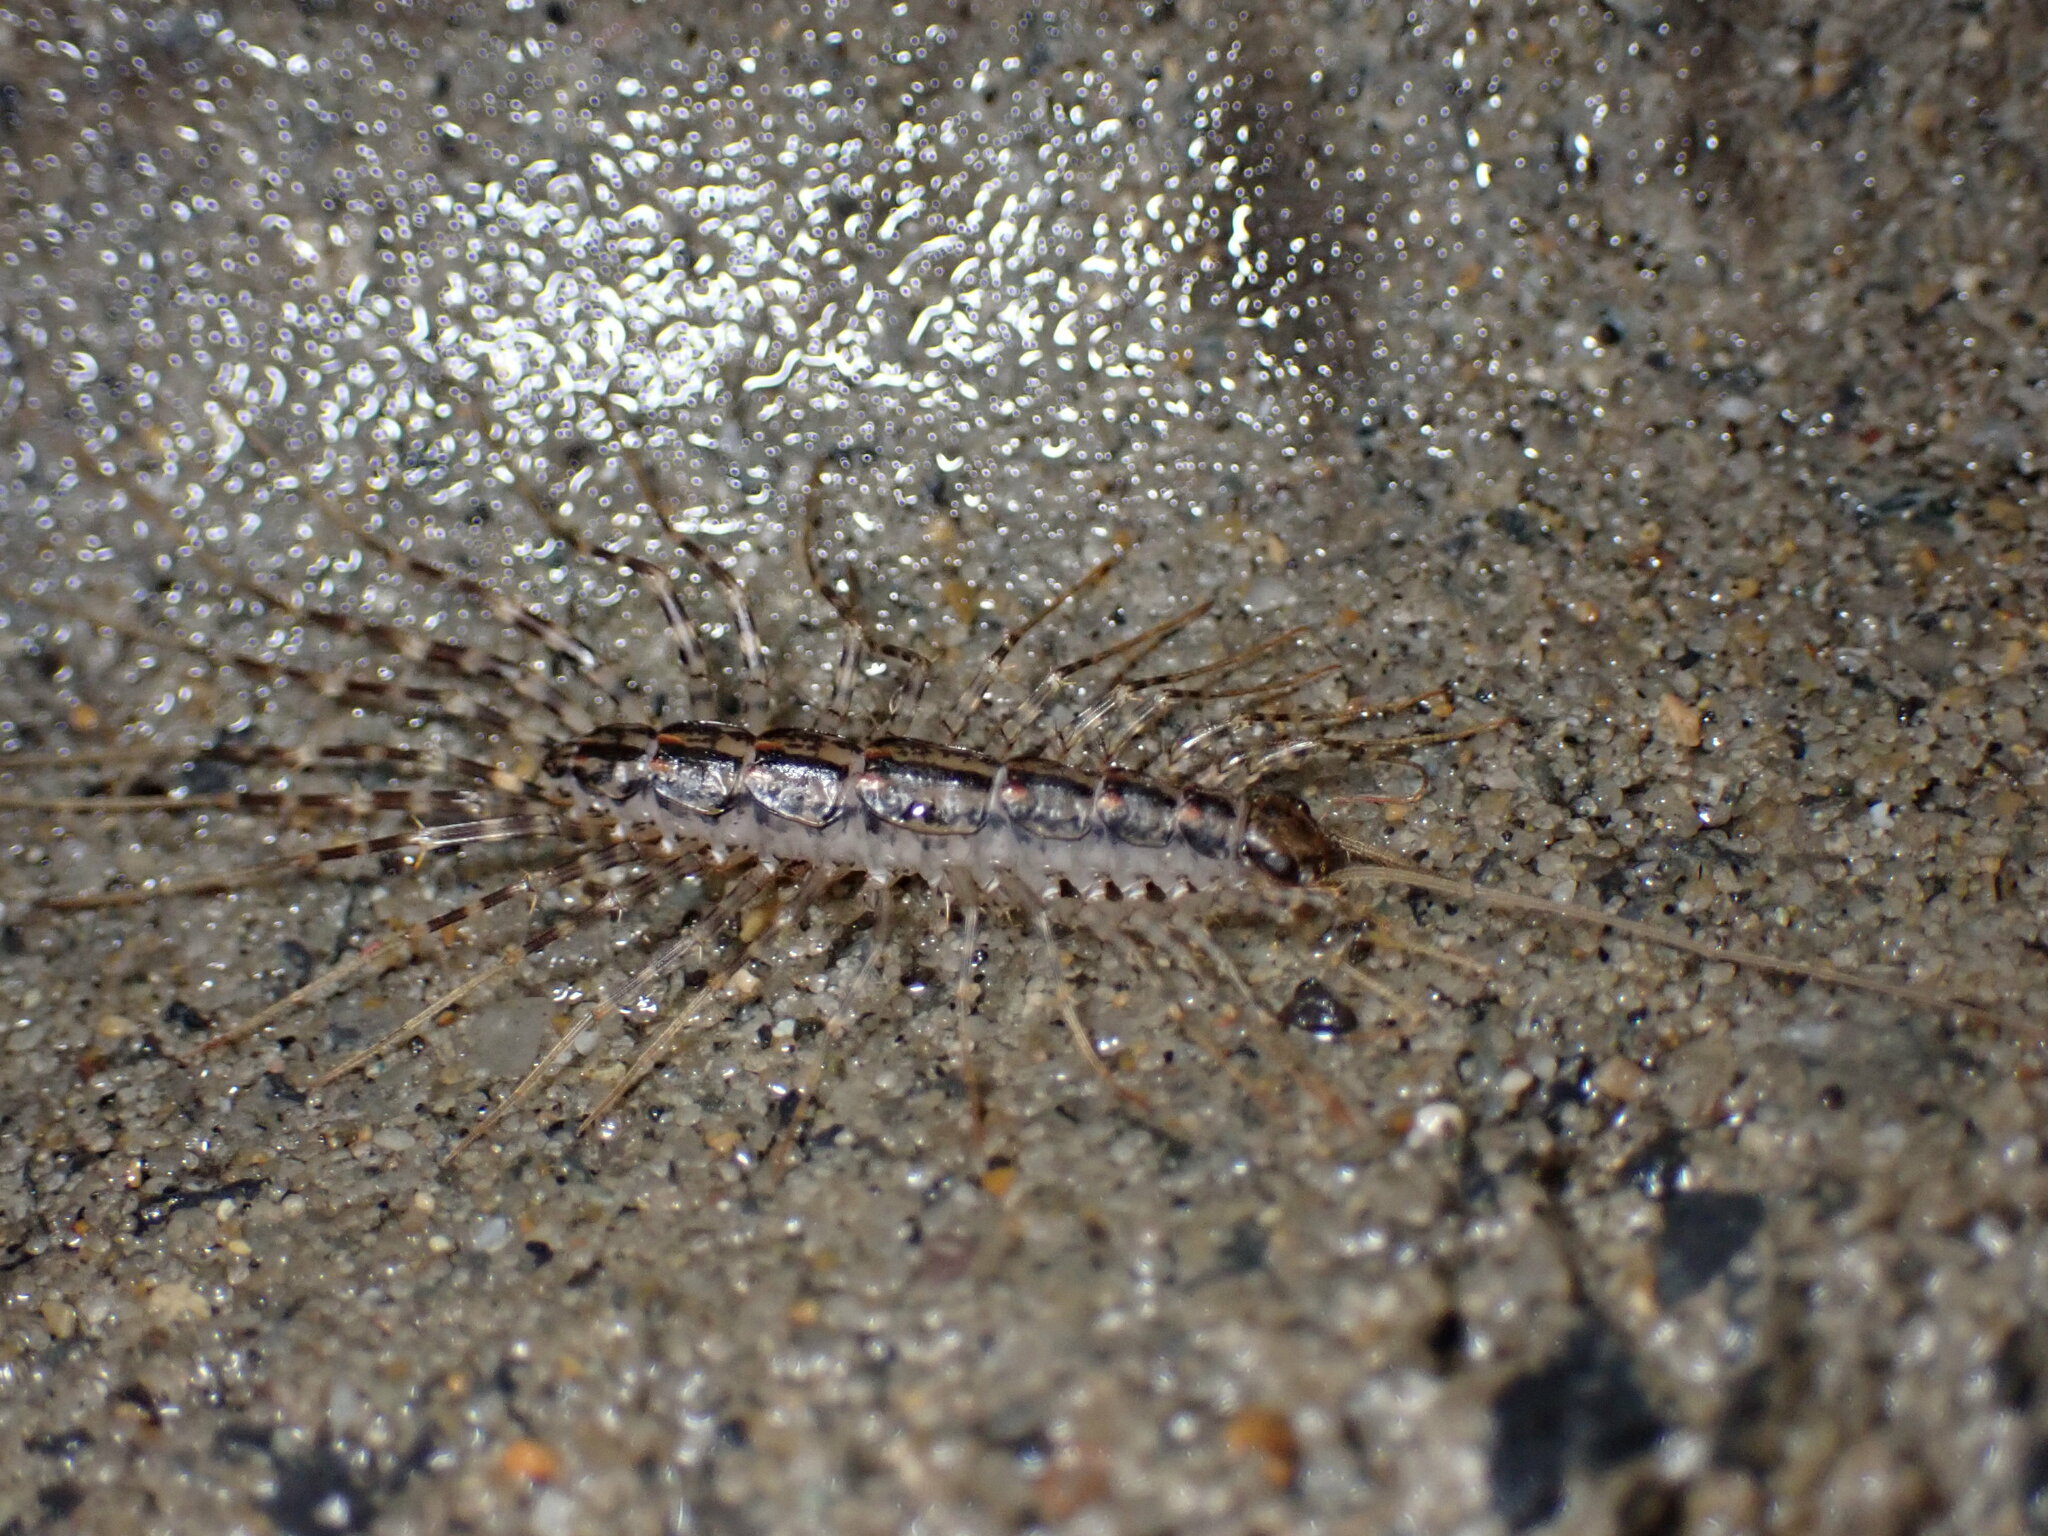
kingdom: Animalia
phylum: Arthropoda
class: Chilopoda
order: Scutigeromorpha
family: Scutigeridae
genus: Thereuonema
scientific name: Thereuonema tuberculata
